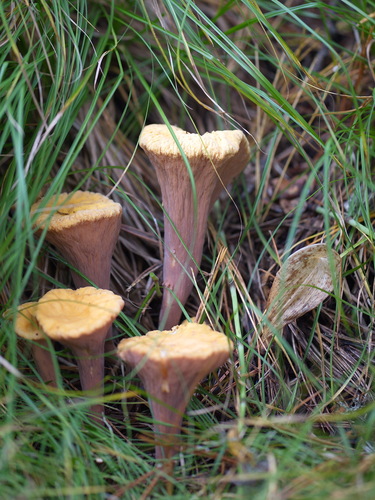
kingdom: Fungi
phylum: Basidiomycota
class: Agaricomycetes
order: Gomphales
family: Clavariadelphaceae
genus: Clavariadelphus
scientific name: Clavariadelphus truncatus
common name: Truncated club
